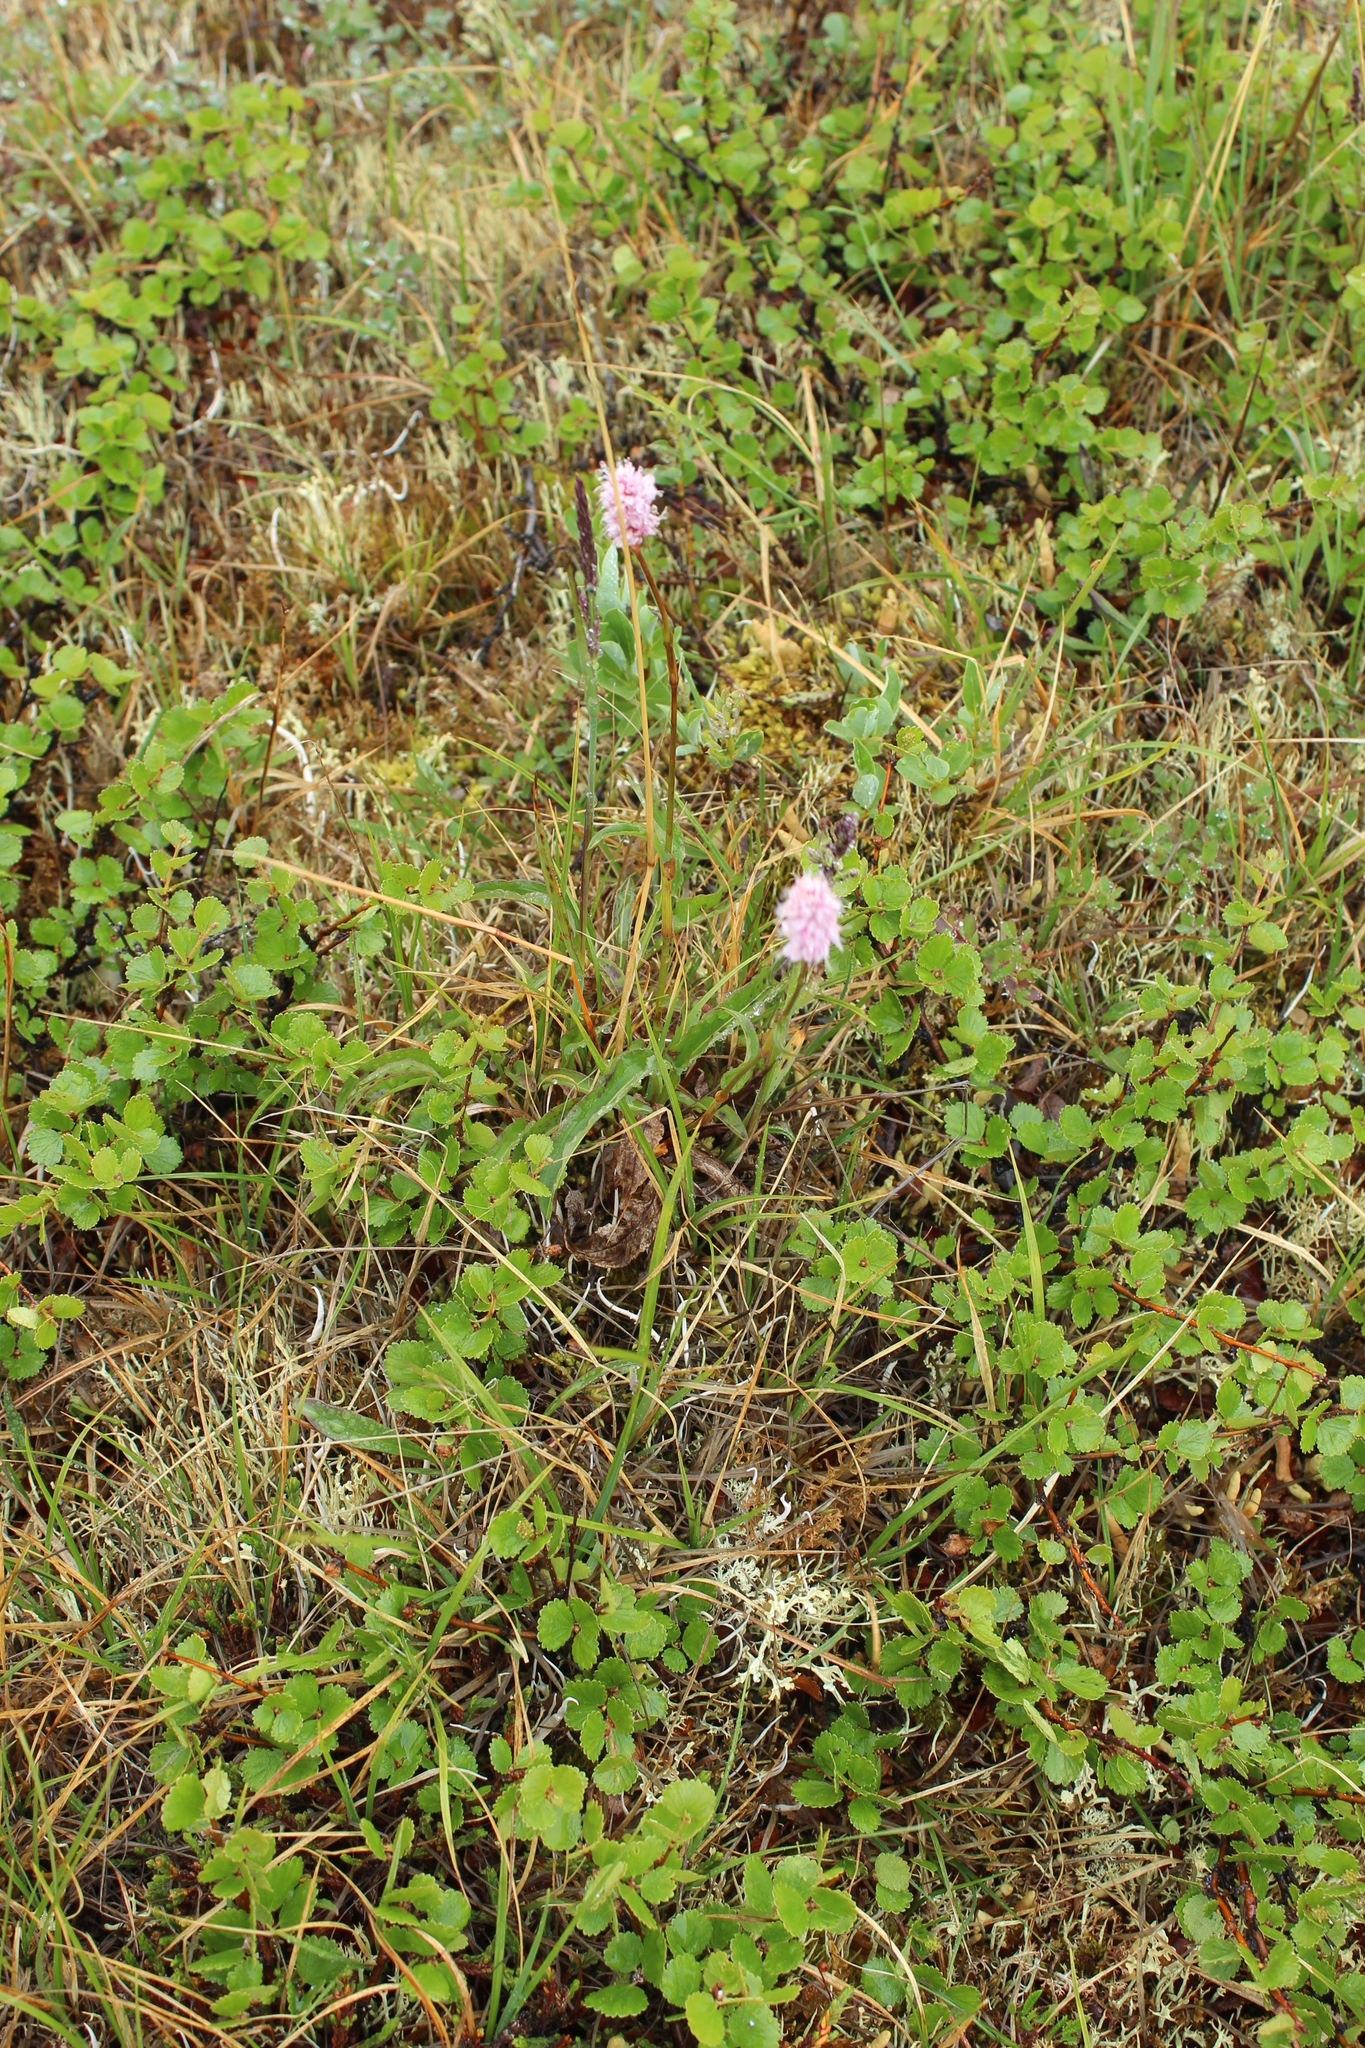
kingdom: Plantae
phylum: Tracheophyta
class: Magnoliopsida
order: Caryophyllales
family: Polygonaceae
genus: Bistorta
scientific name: Bistorta elliptica
